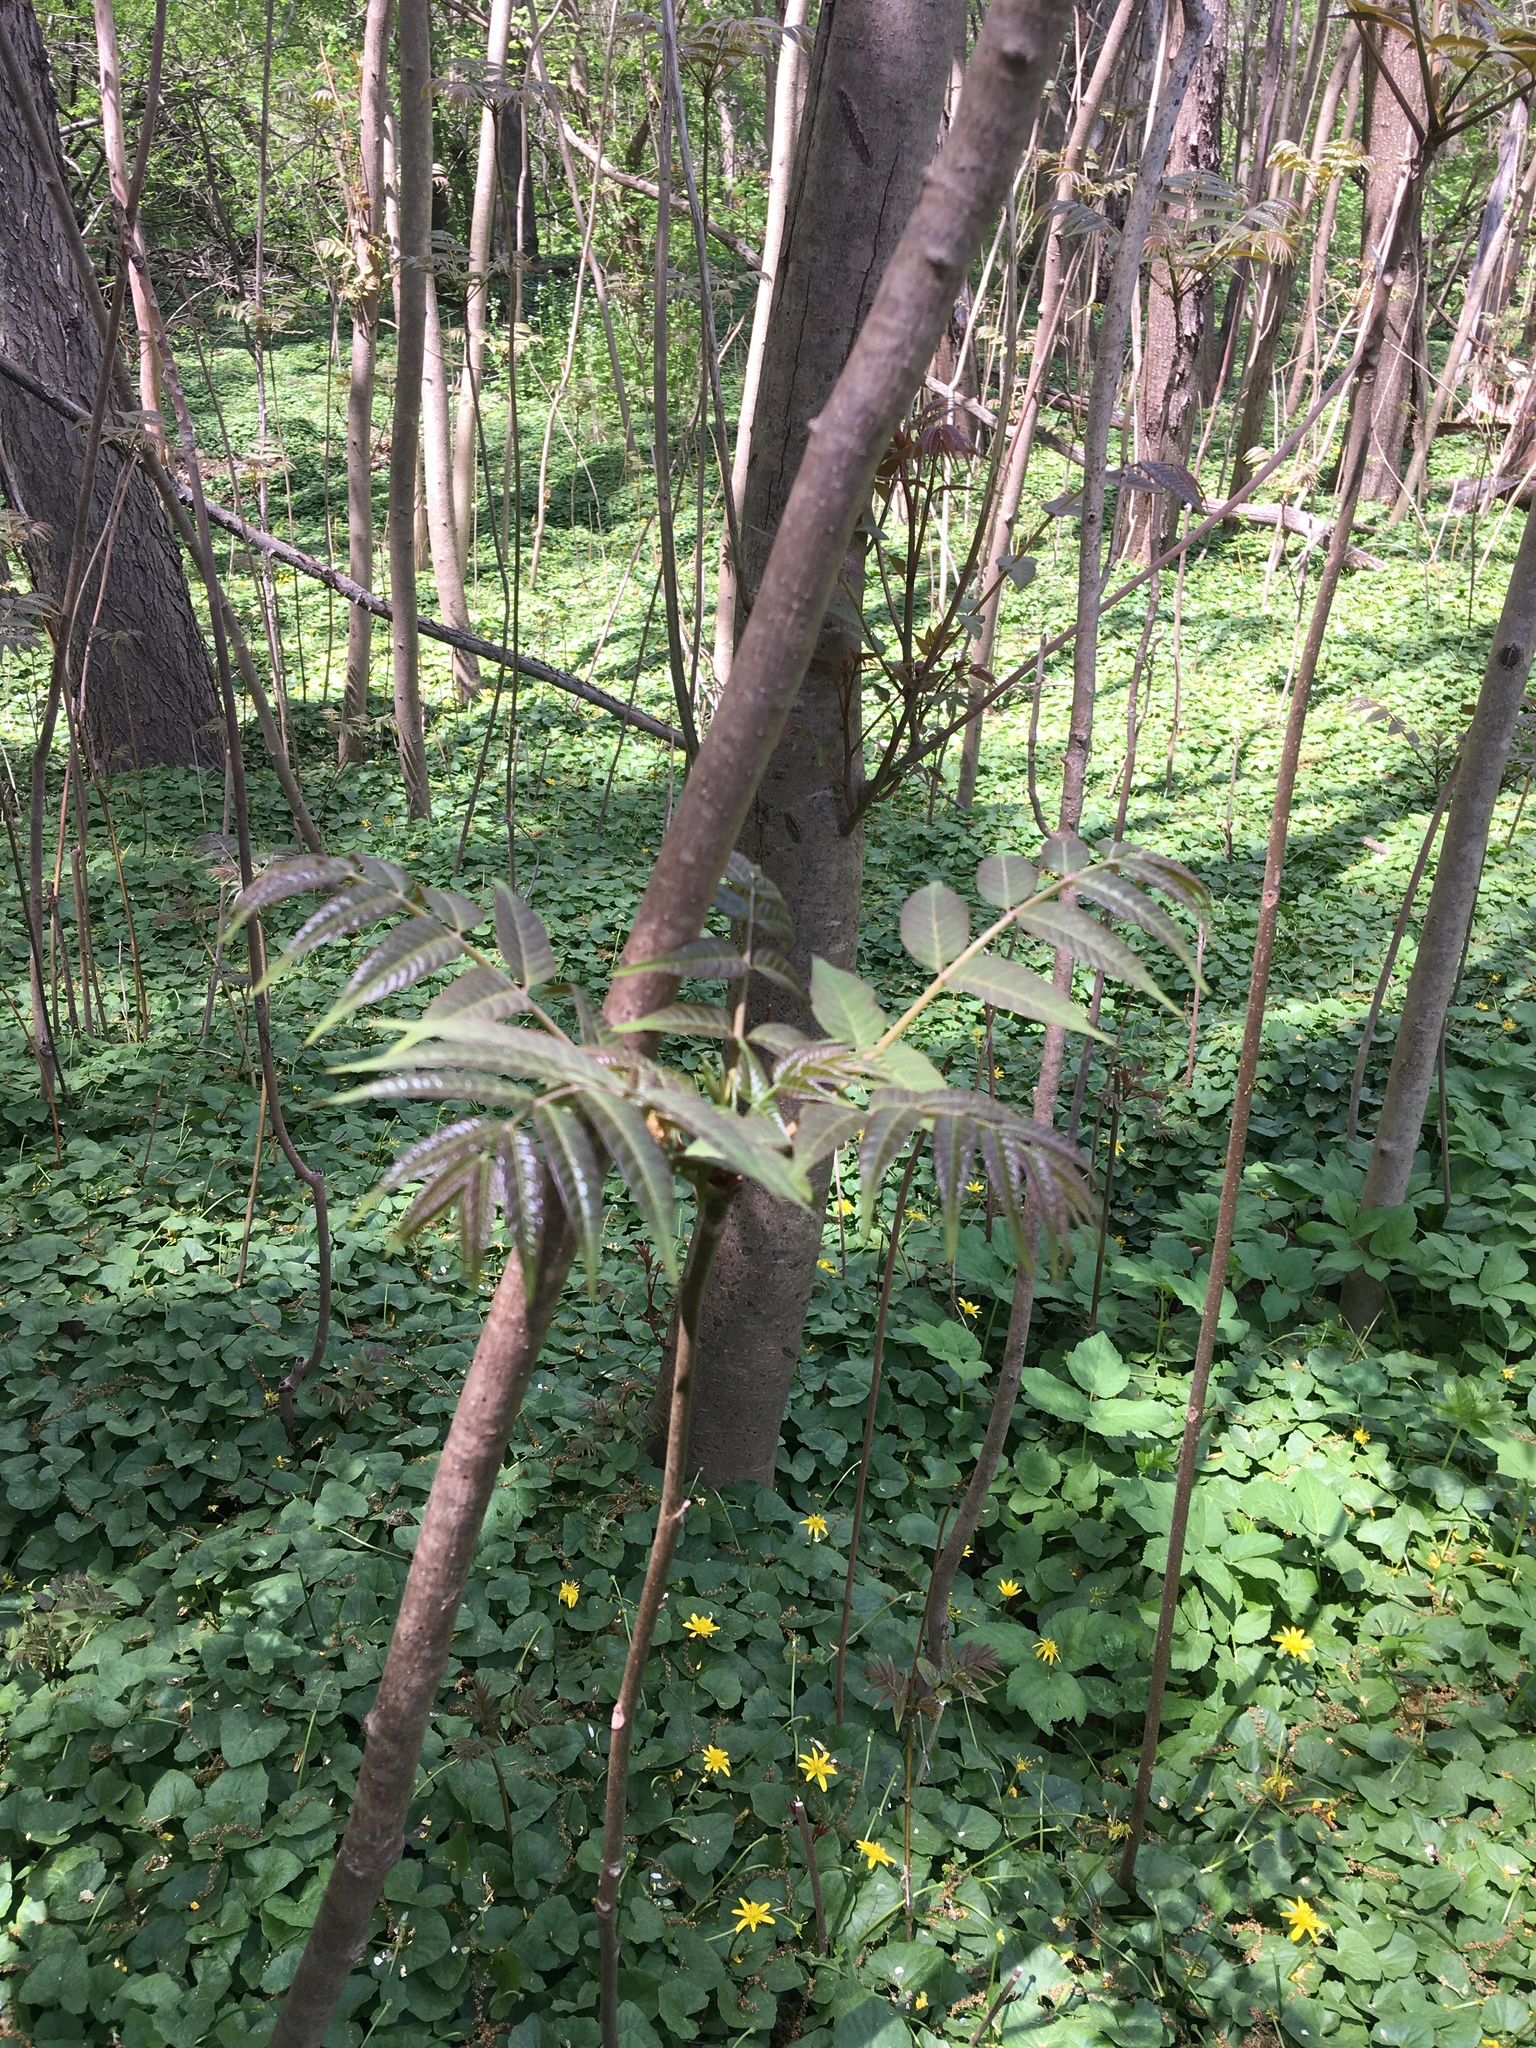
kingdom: Plantae
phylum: Tracheophyta
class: Magnoliopsida
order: Sapindales
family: Meliaceae
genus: Toona
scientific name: Toona sinensis
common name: Red toon
